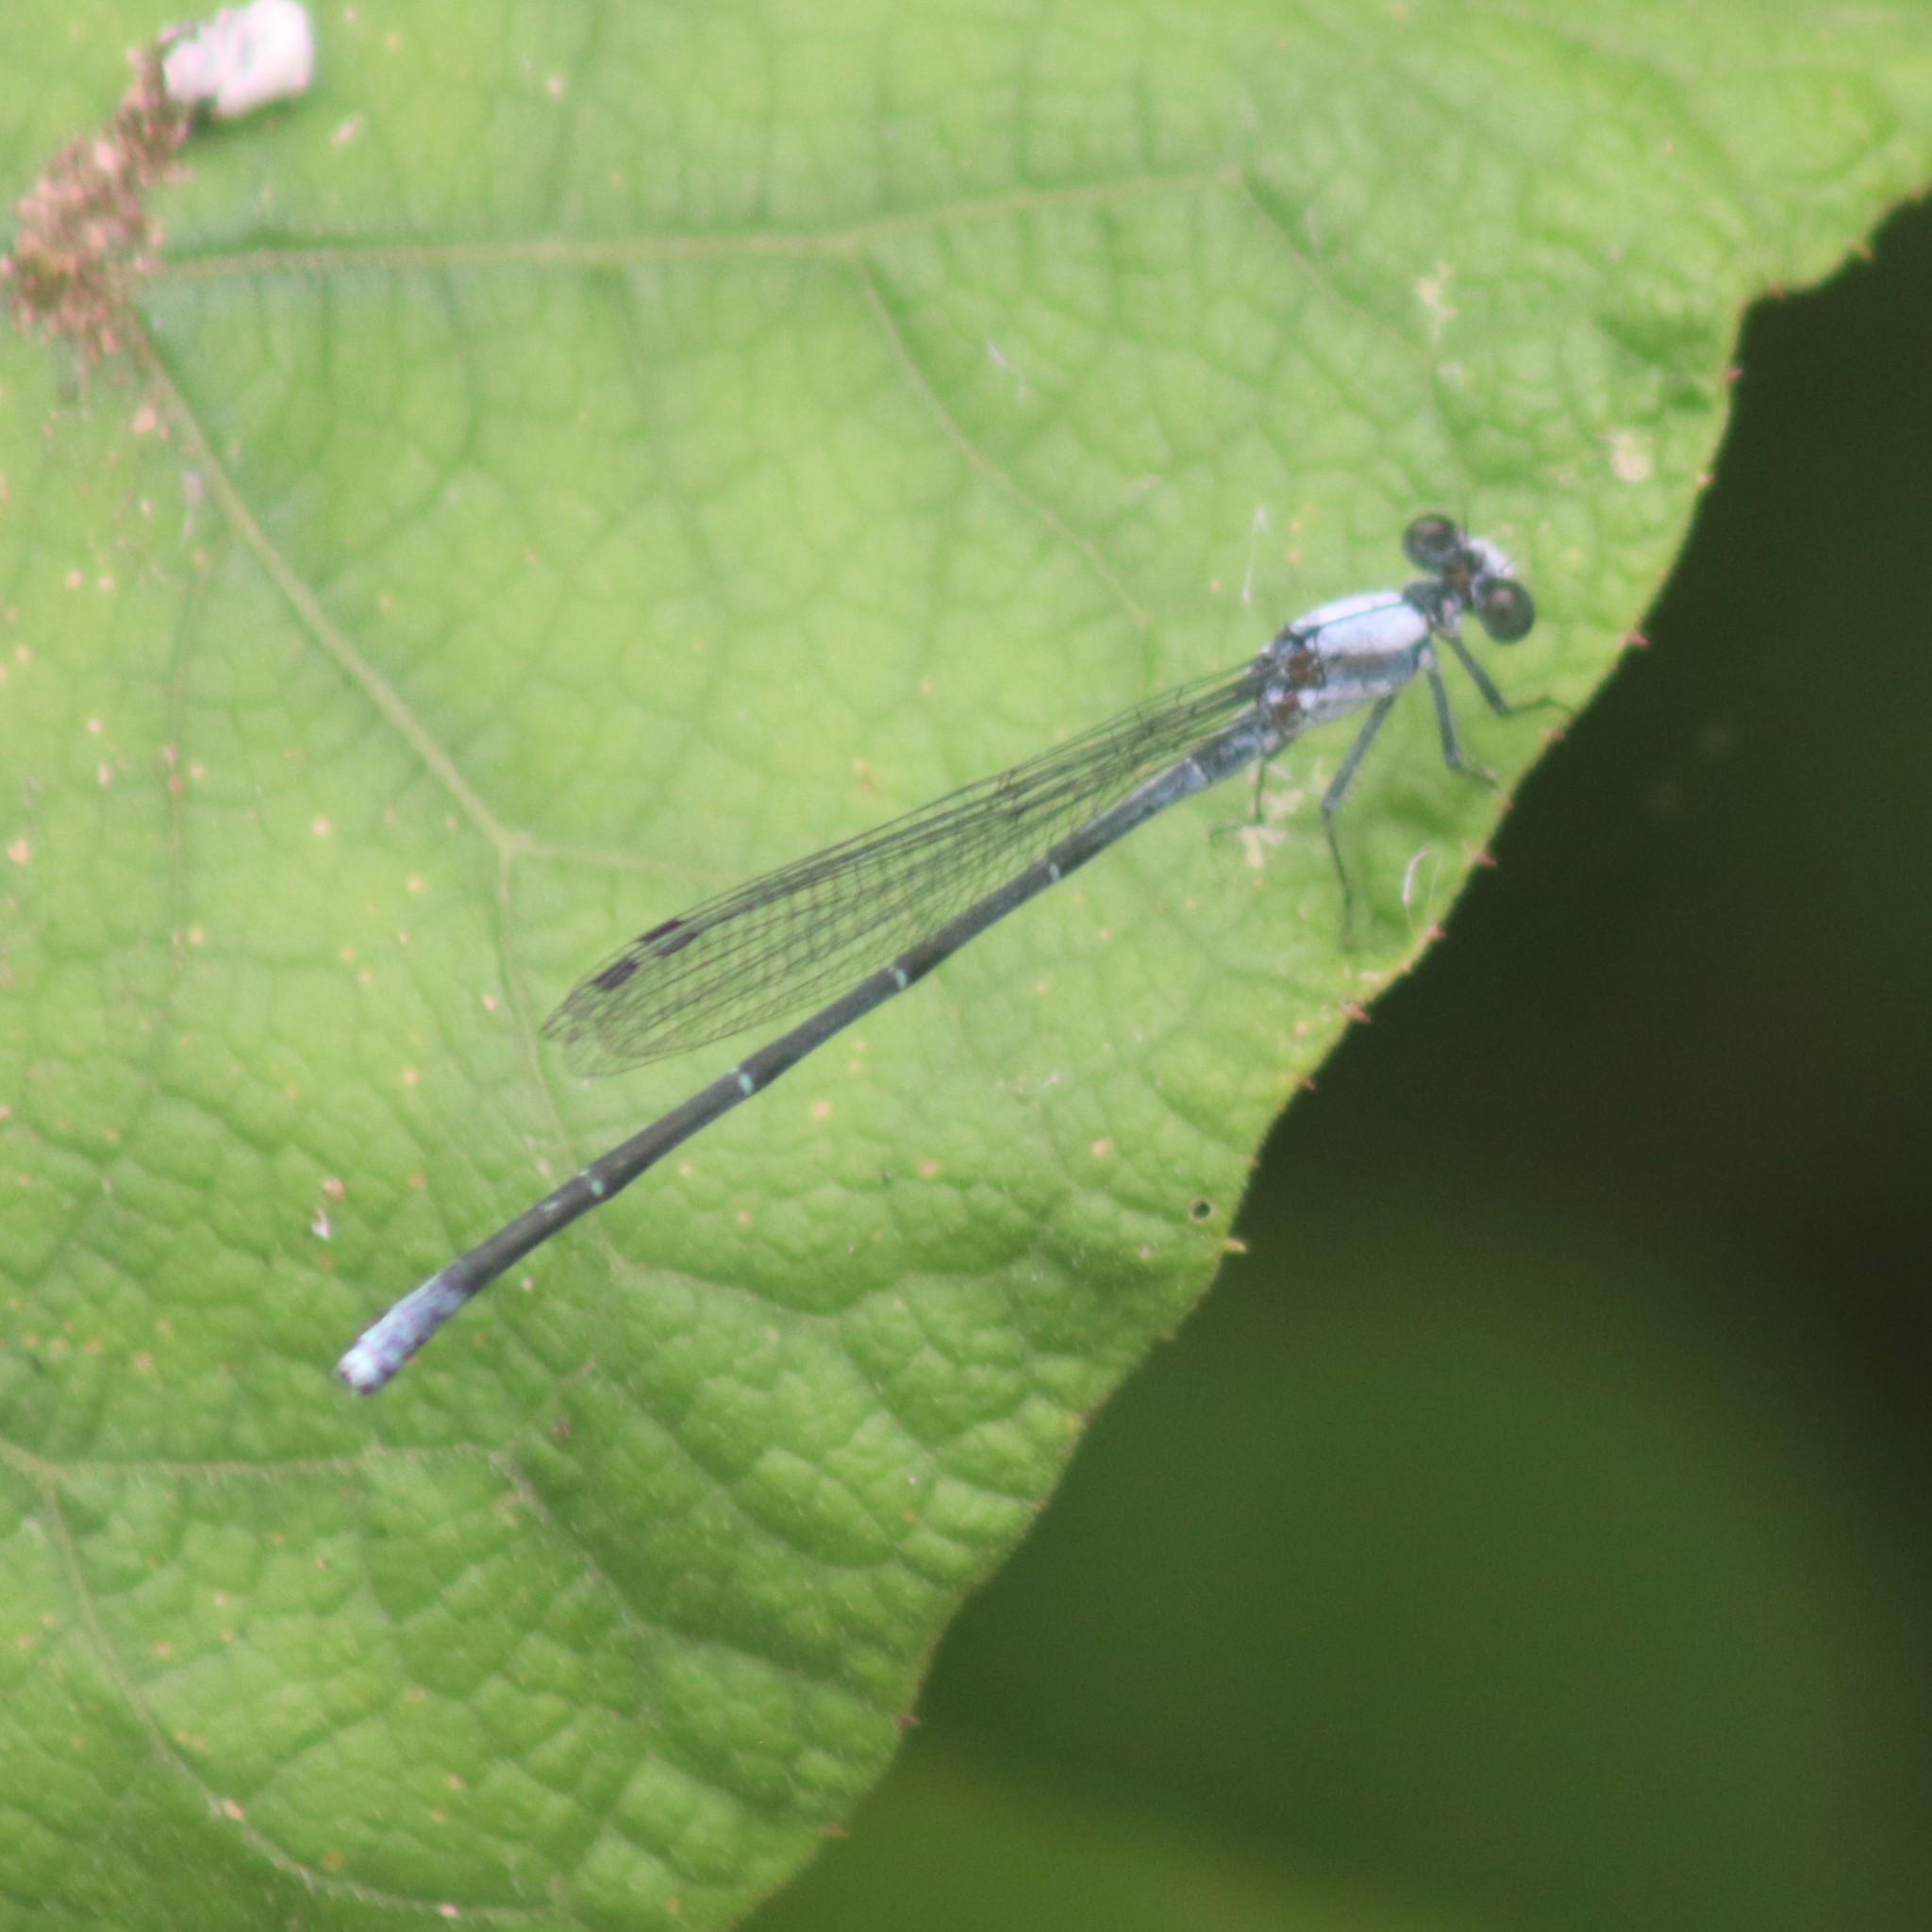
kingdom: Animalia
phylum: Arthropoda
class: Insecta
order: Odonata
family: Coenagrionidae
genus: Argia
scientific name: Argia moesta
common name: Powdered dancer
